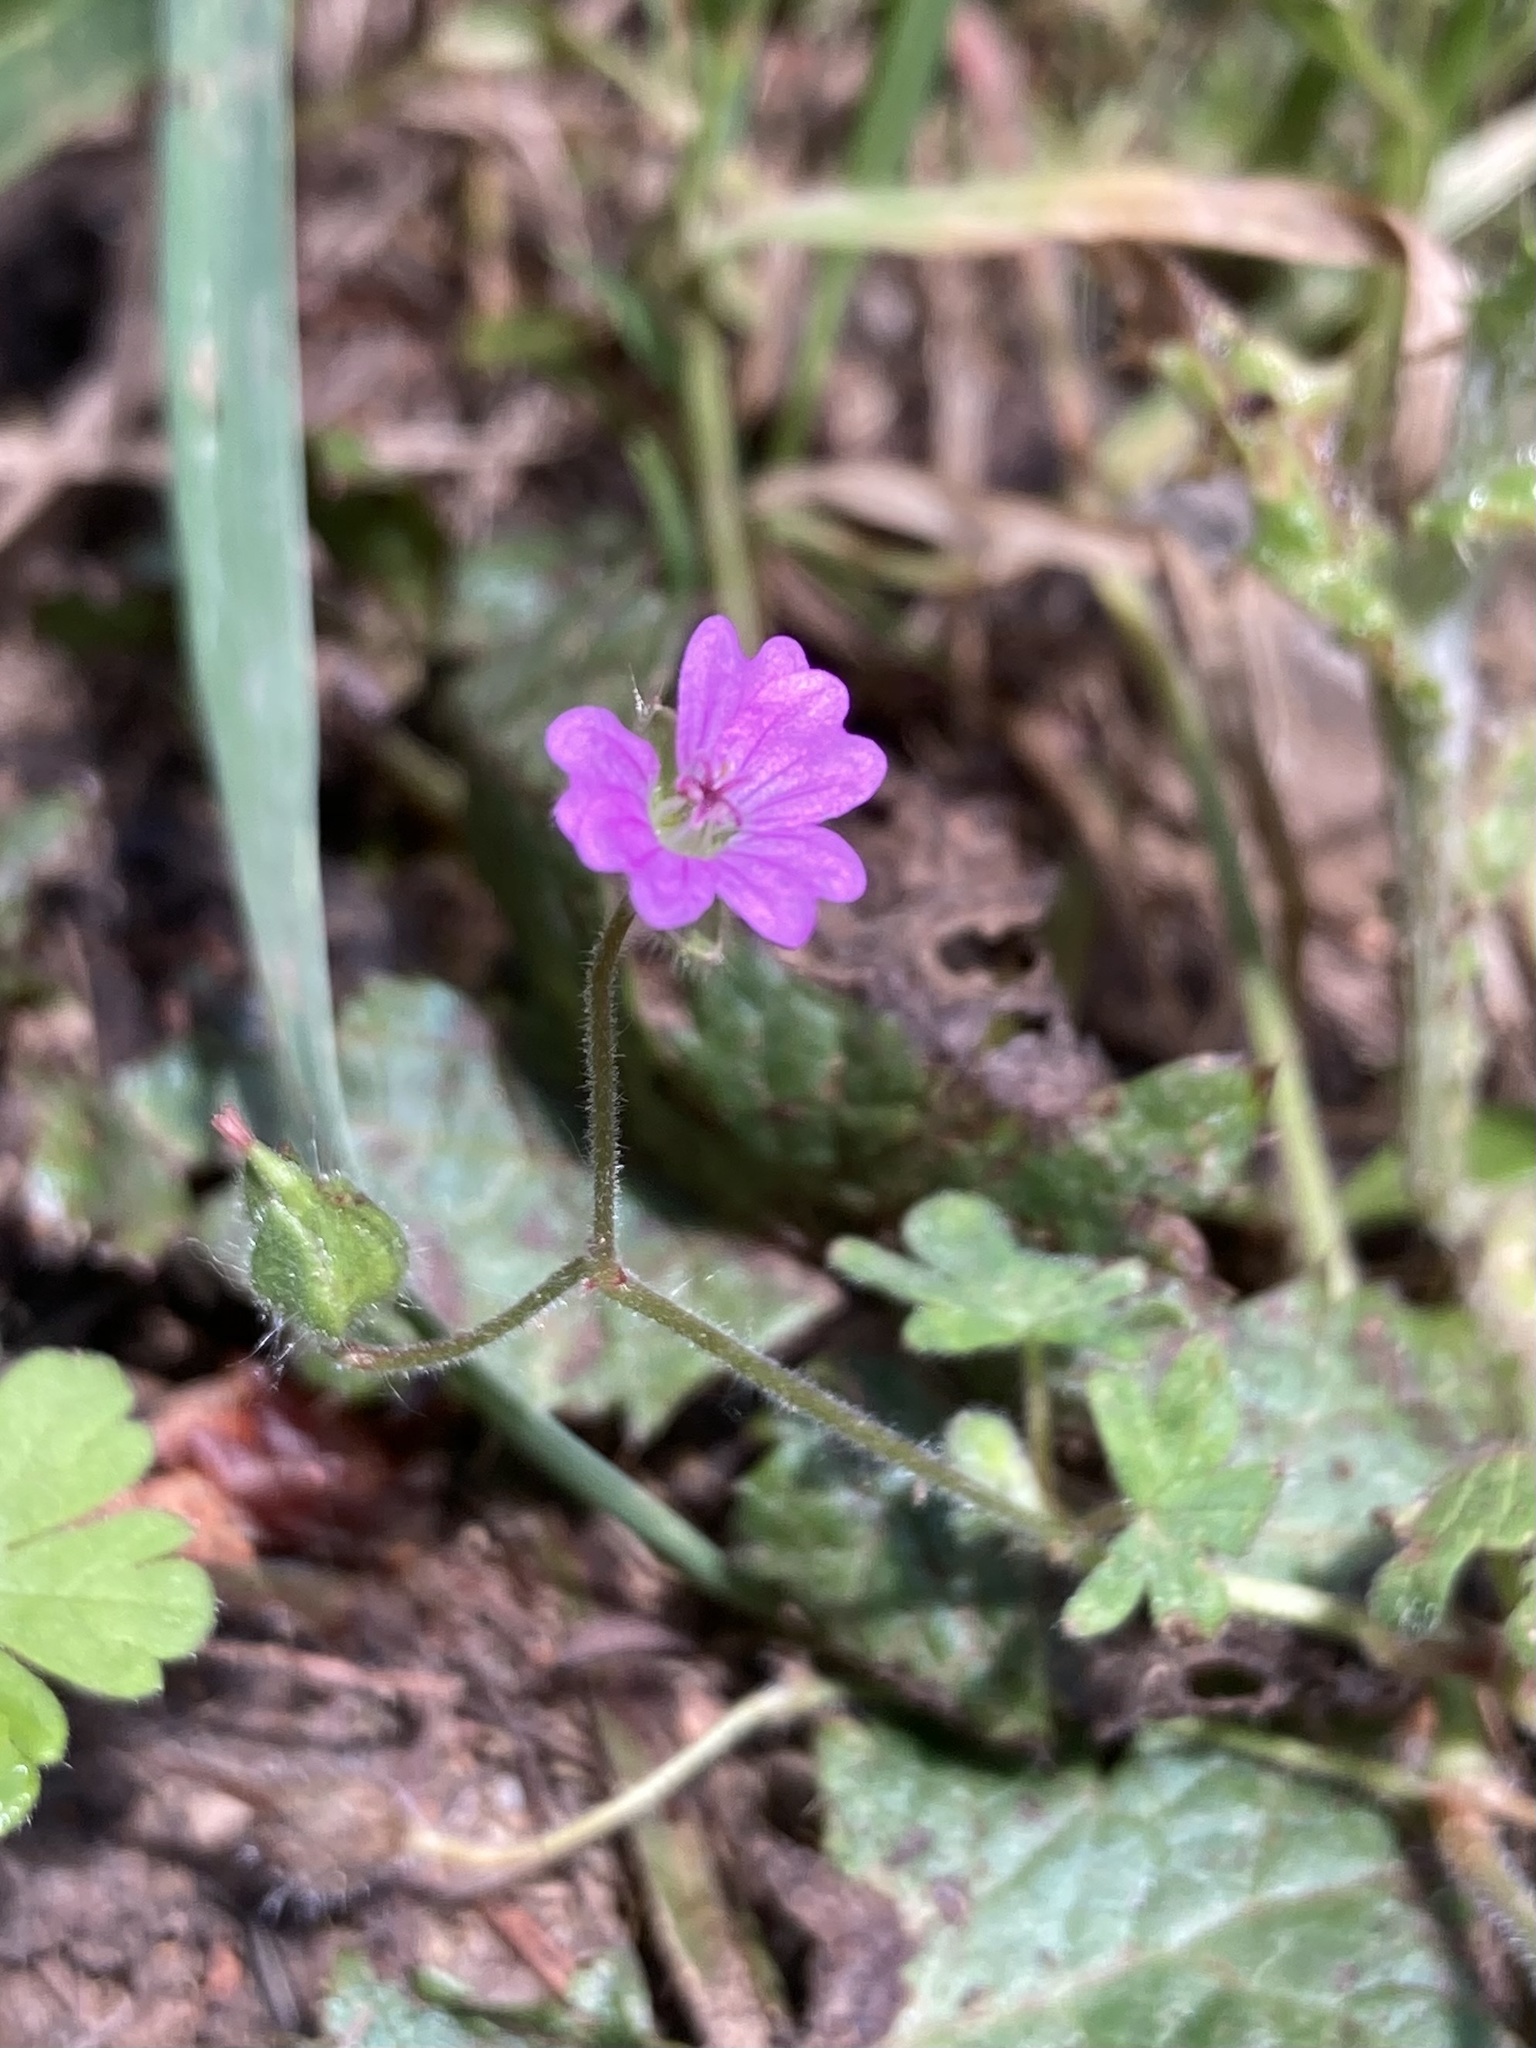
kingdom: Plantae
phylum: Tracheophyta
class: Magnoliopsida
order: Geraniales
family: Geraniaceae
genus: Geranium
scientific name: Geranium molle
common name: Dove's-foot crane's-bill
